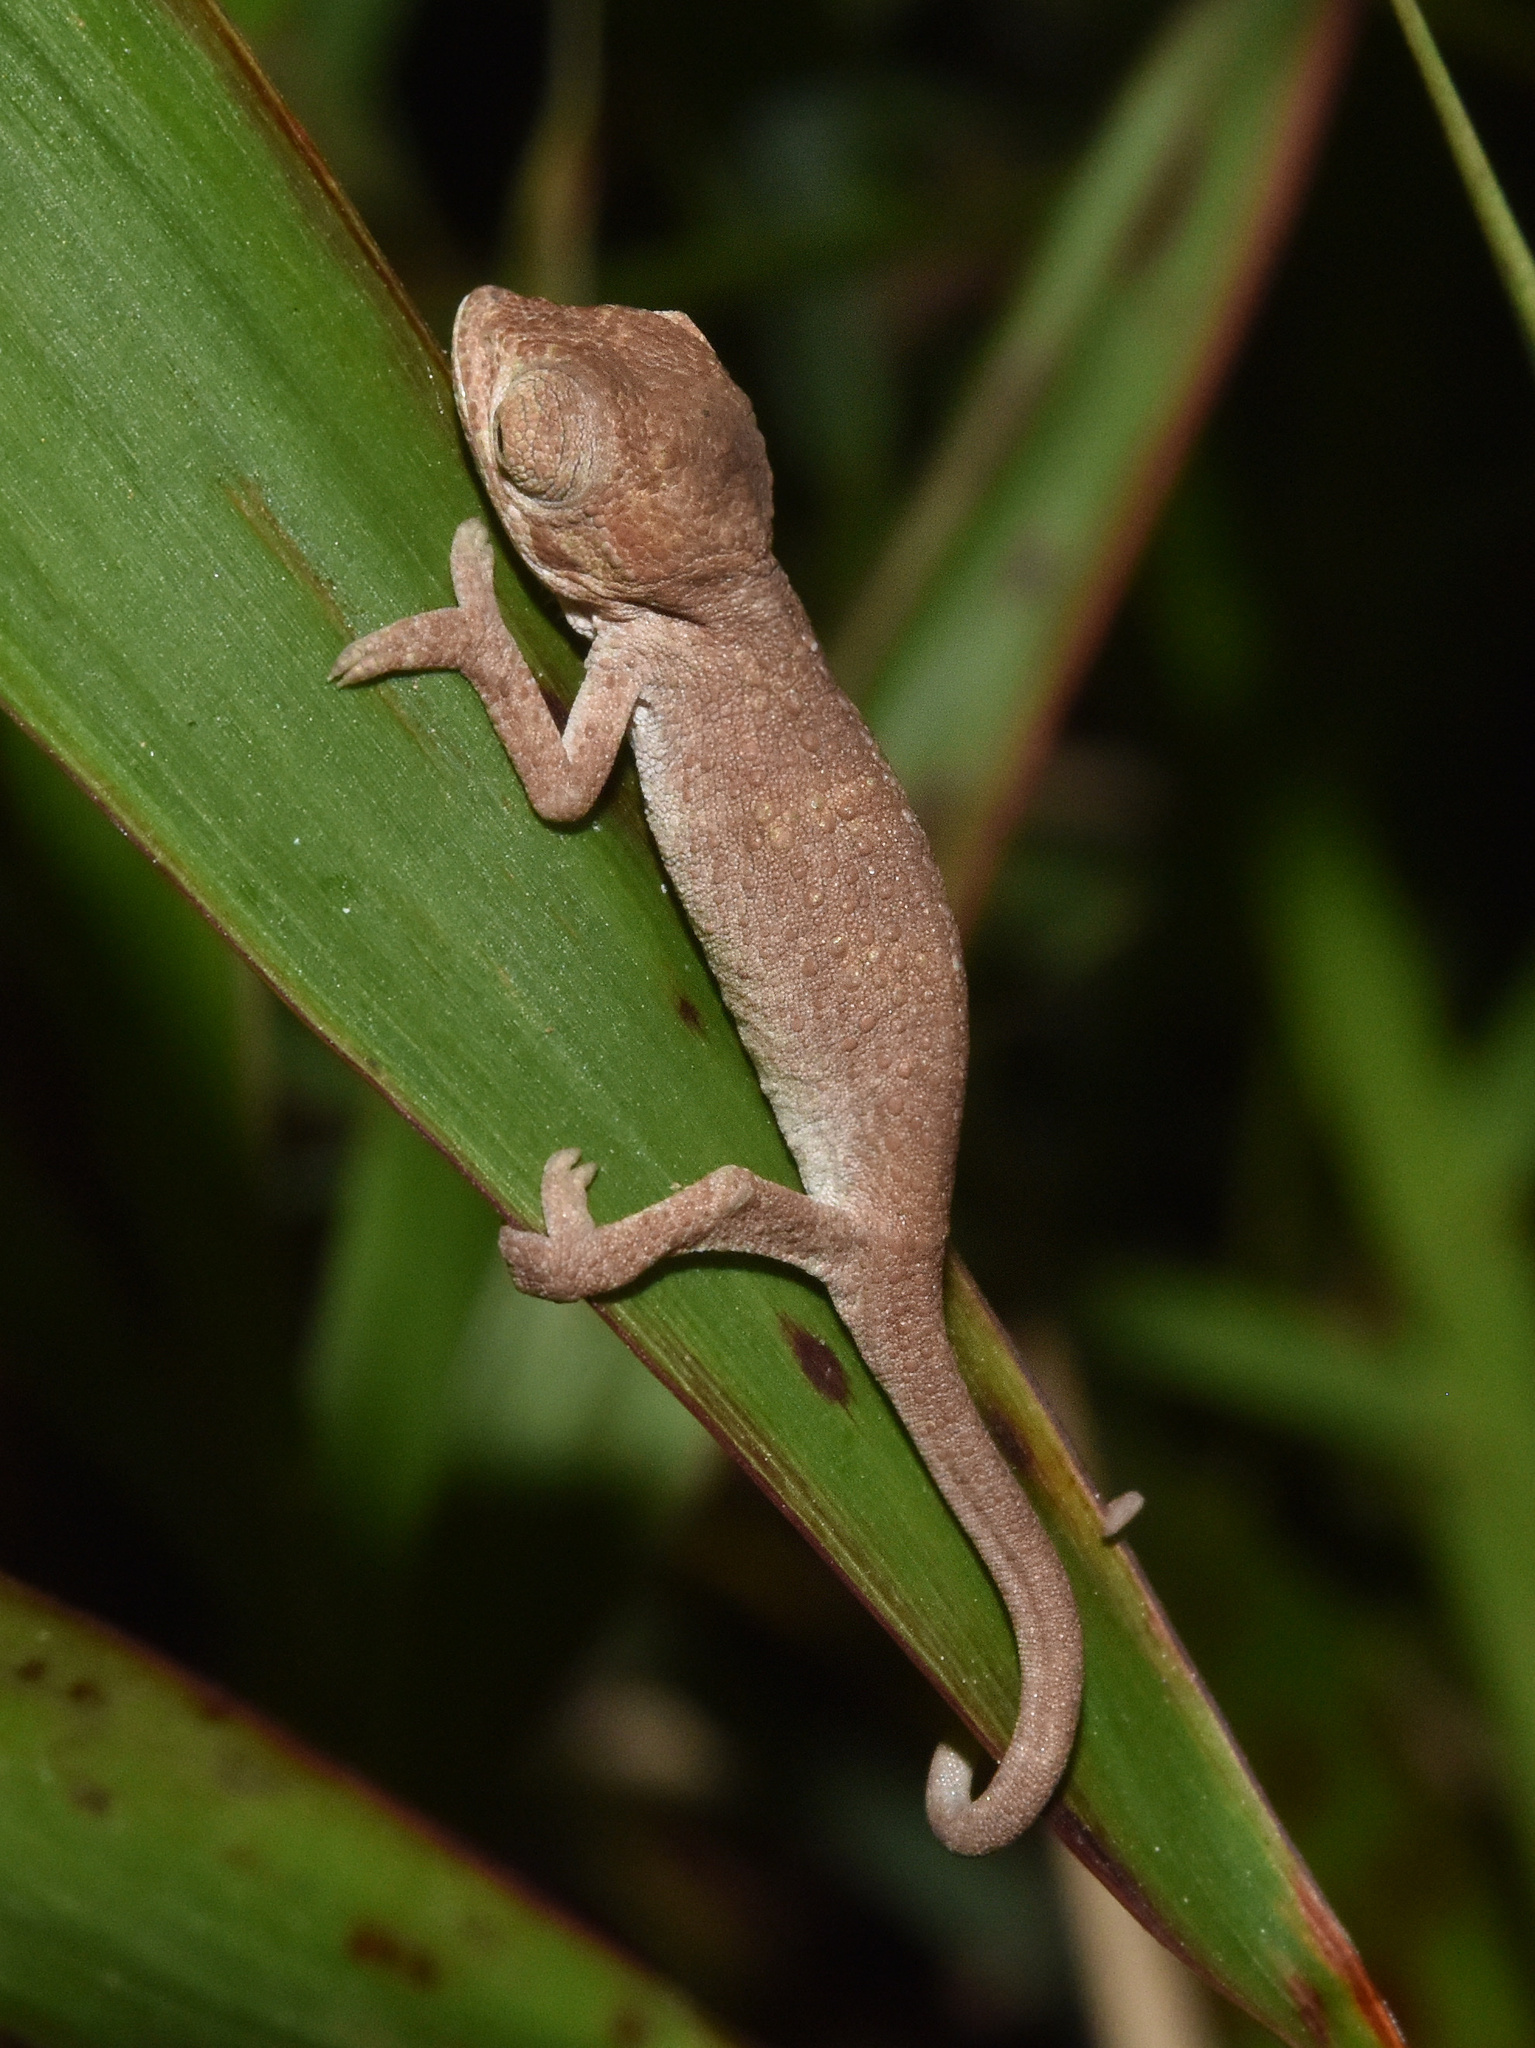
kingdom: Animalia
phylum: Chordata
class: Squamata
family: Chamaeleonidae
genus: Bradypodion
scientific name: Bradypodion melanocephalum
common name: Black-headed dwarf chameleon
